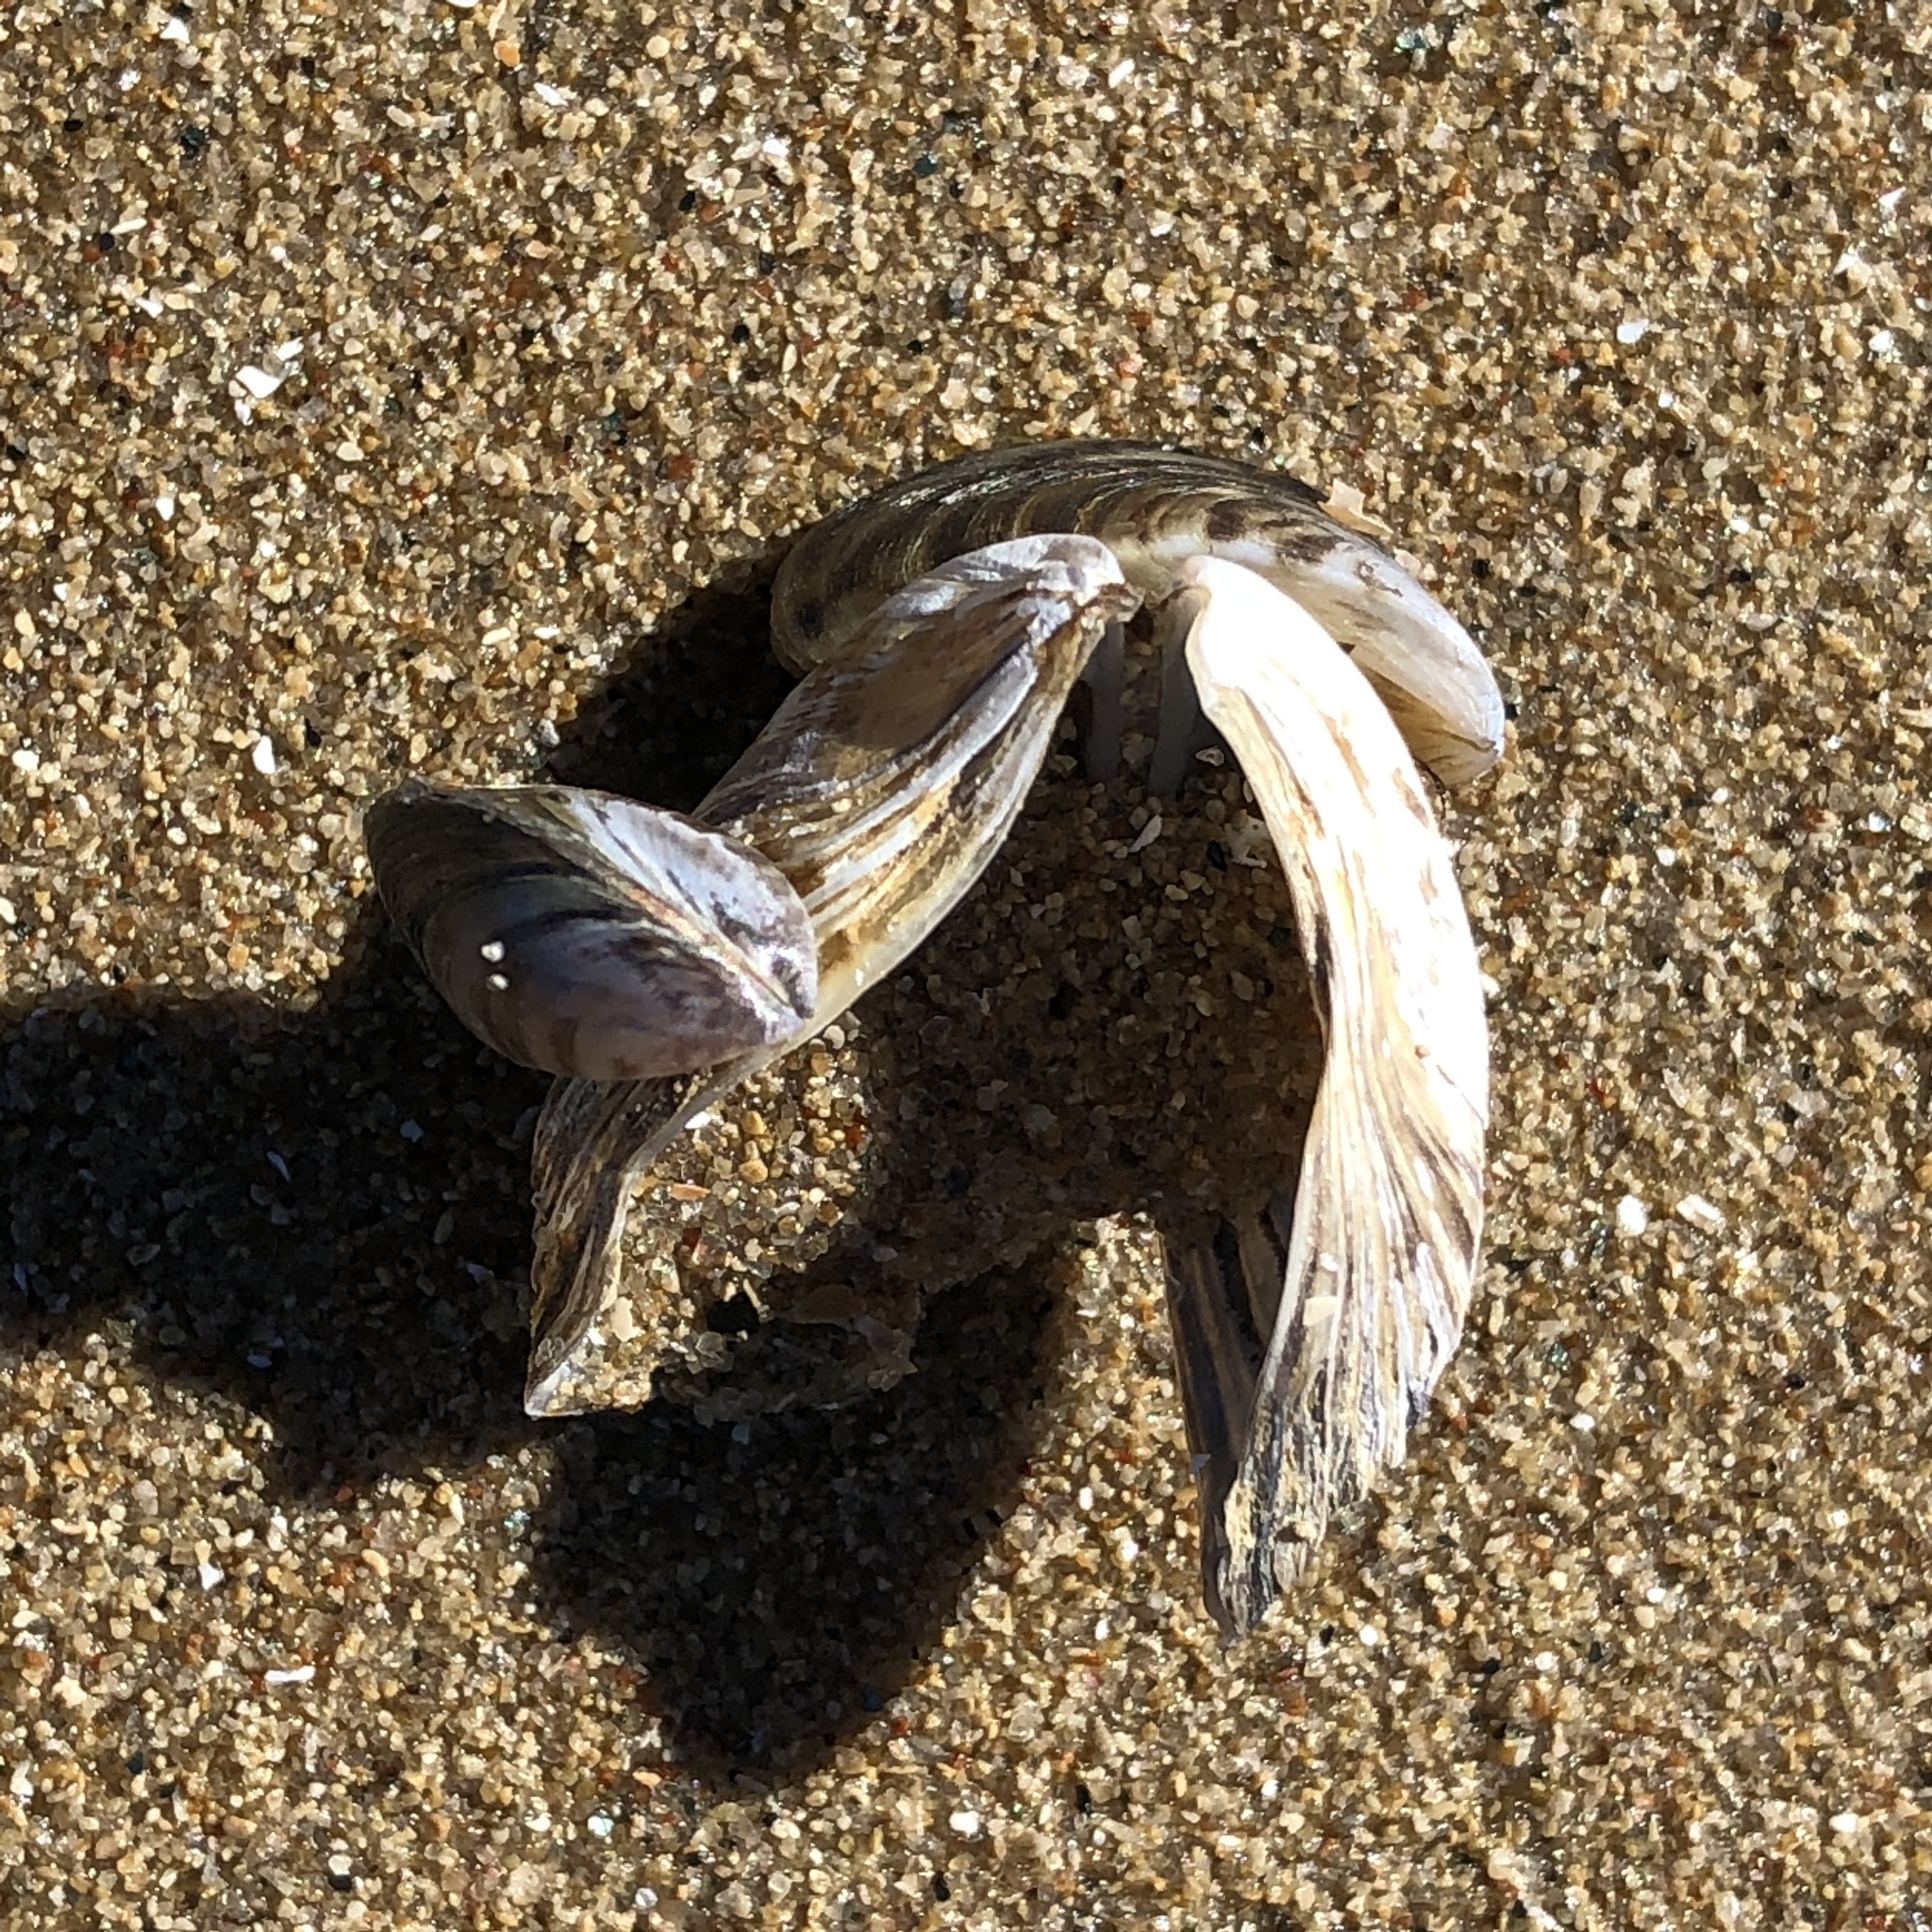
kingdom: Animalia
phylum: Mollusca
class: Bivalvia
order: Myida
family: Dreissenidae
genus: Dreissena
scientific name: Dreissena polymorpha
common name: Zebra mussel
